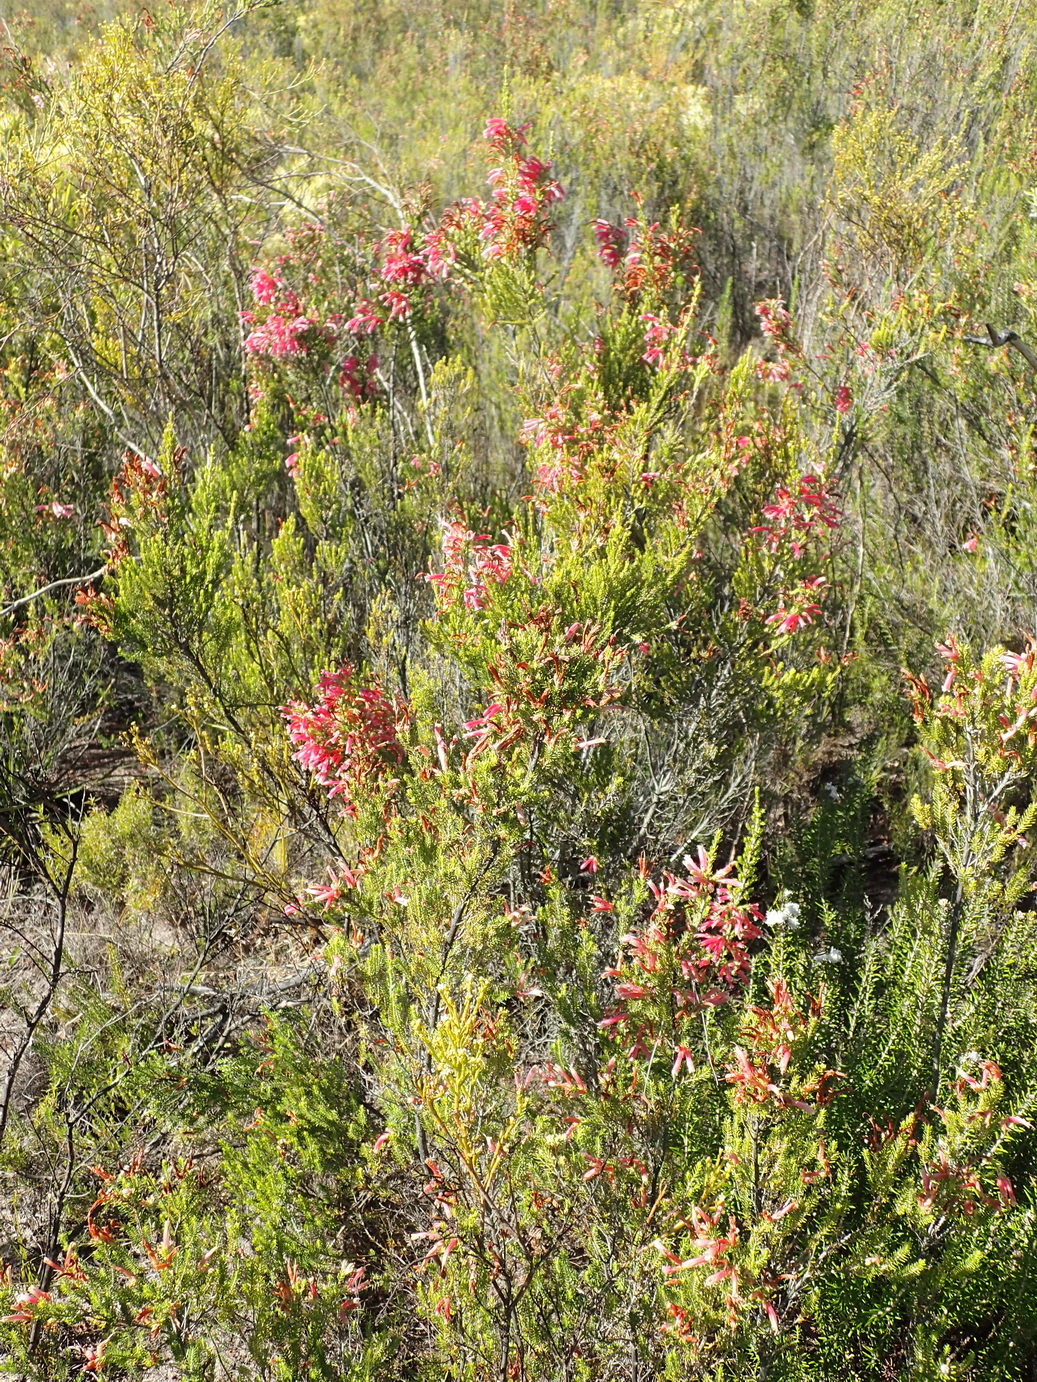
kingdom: Plantae
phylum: Tracheophyta
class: Magnoliopsida
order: Ericales
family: Ericaceae
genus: Erica
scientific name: Erica discolor
